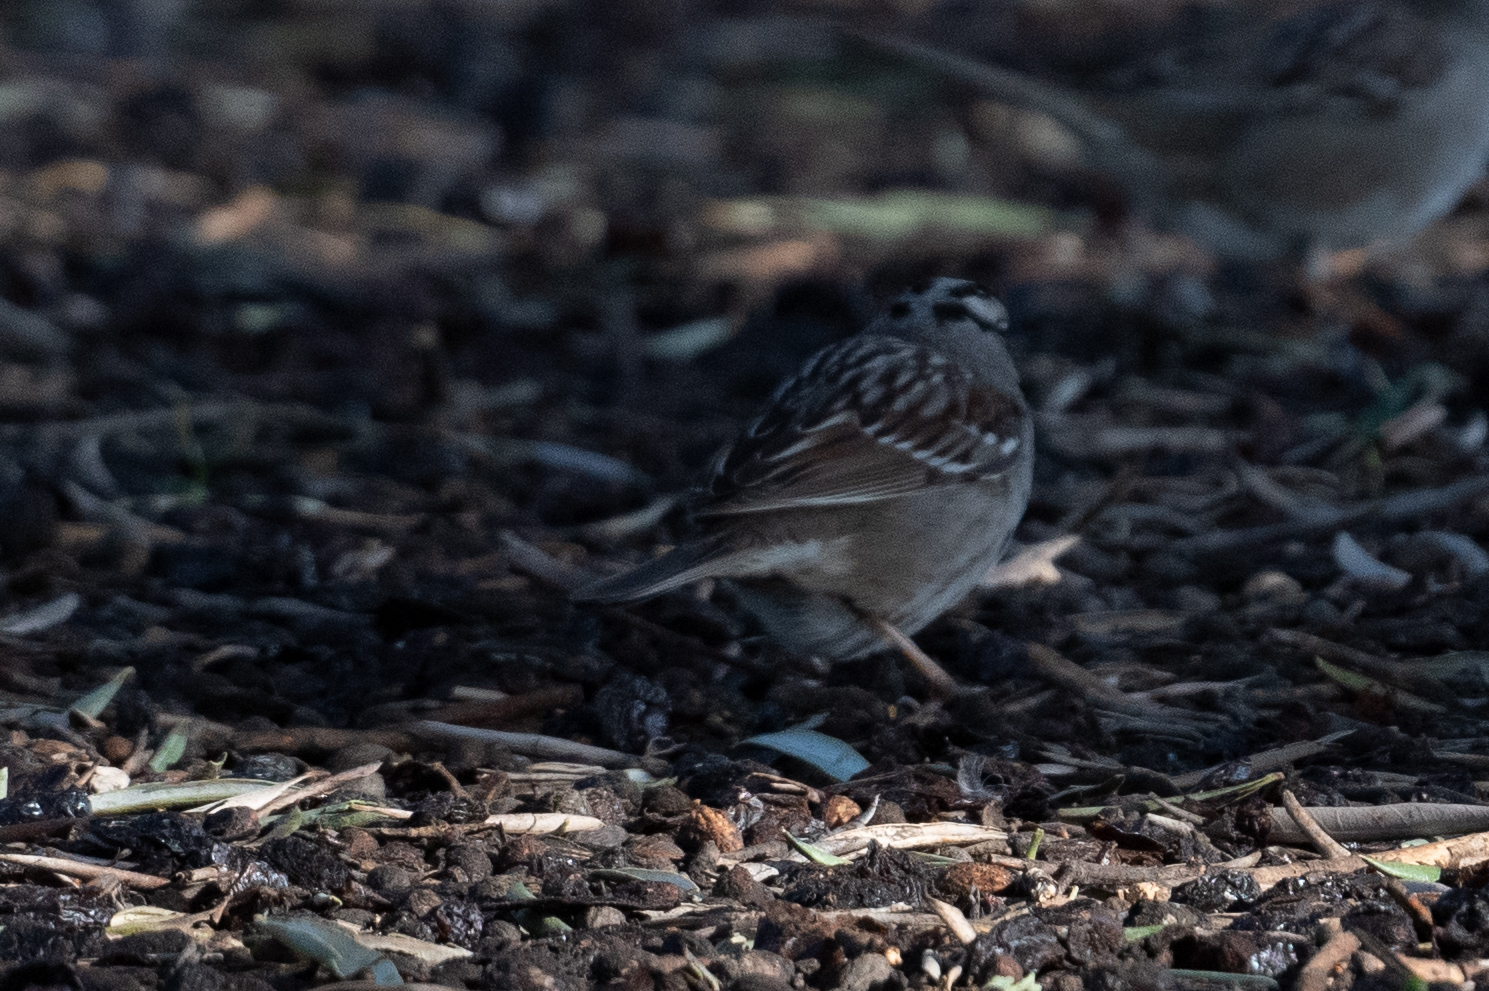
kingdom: Animalia
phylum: Chordata
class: Aves
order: Passeriformes
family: Passerellidae
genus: Zonotrichia
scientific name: Zonotrichia leucophrys
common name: White-crowned sparrow
